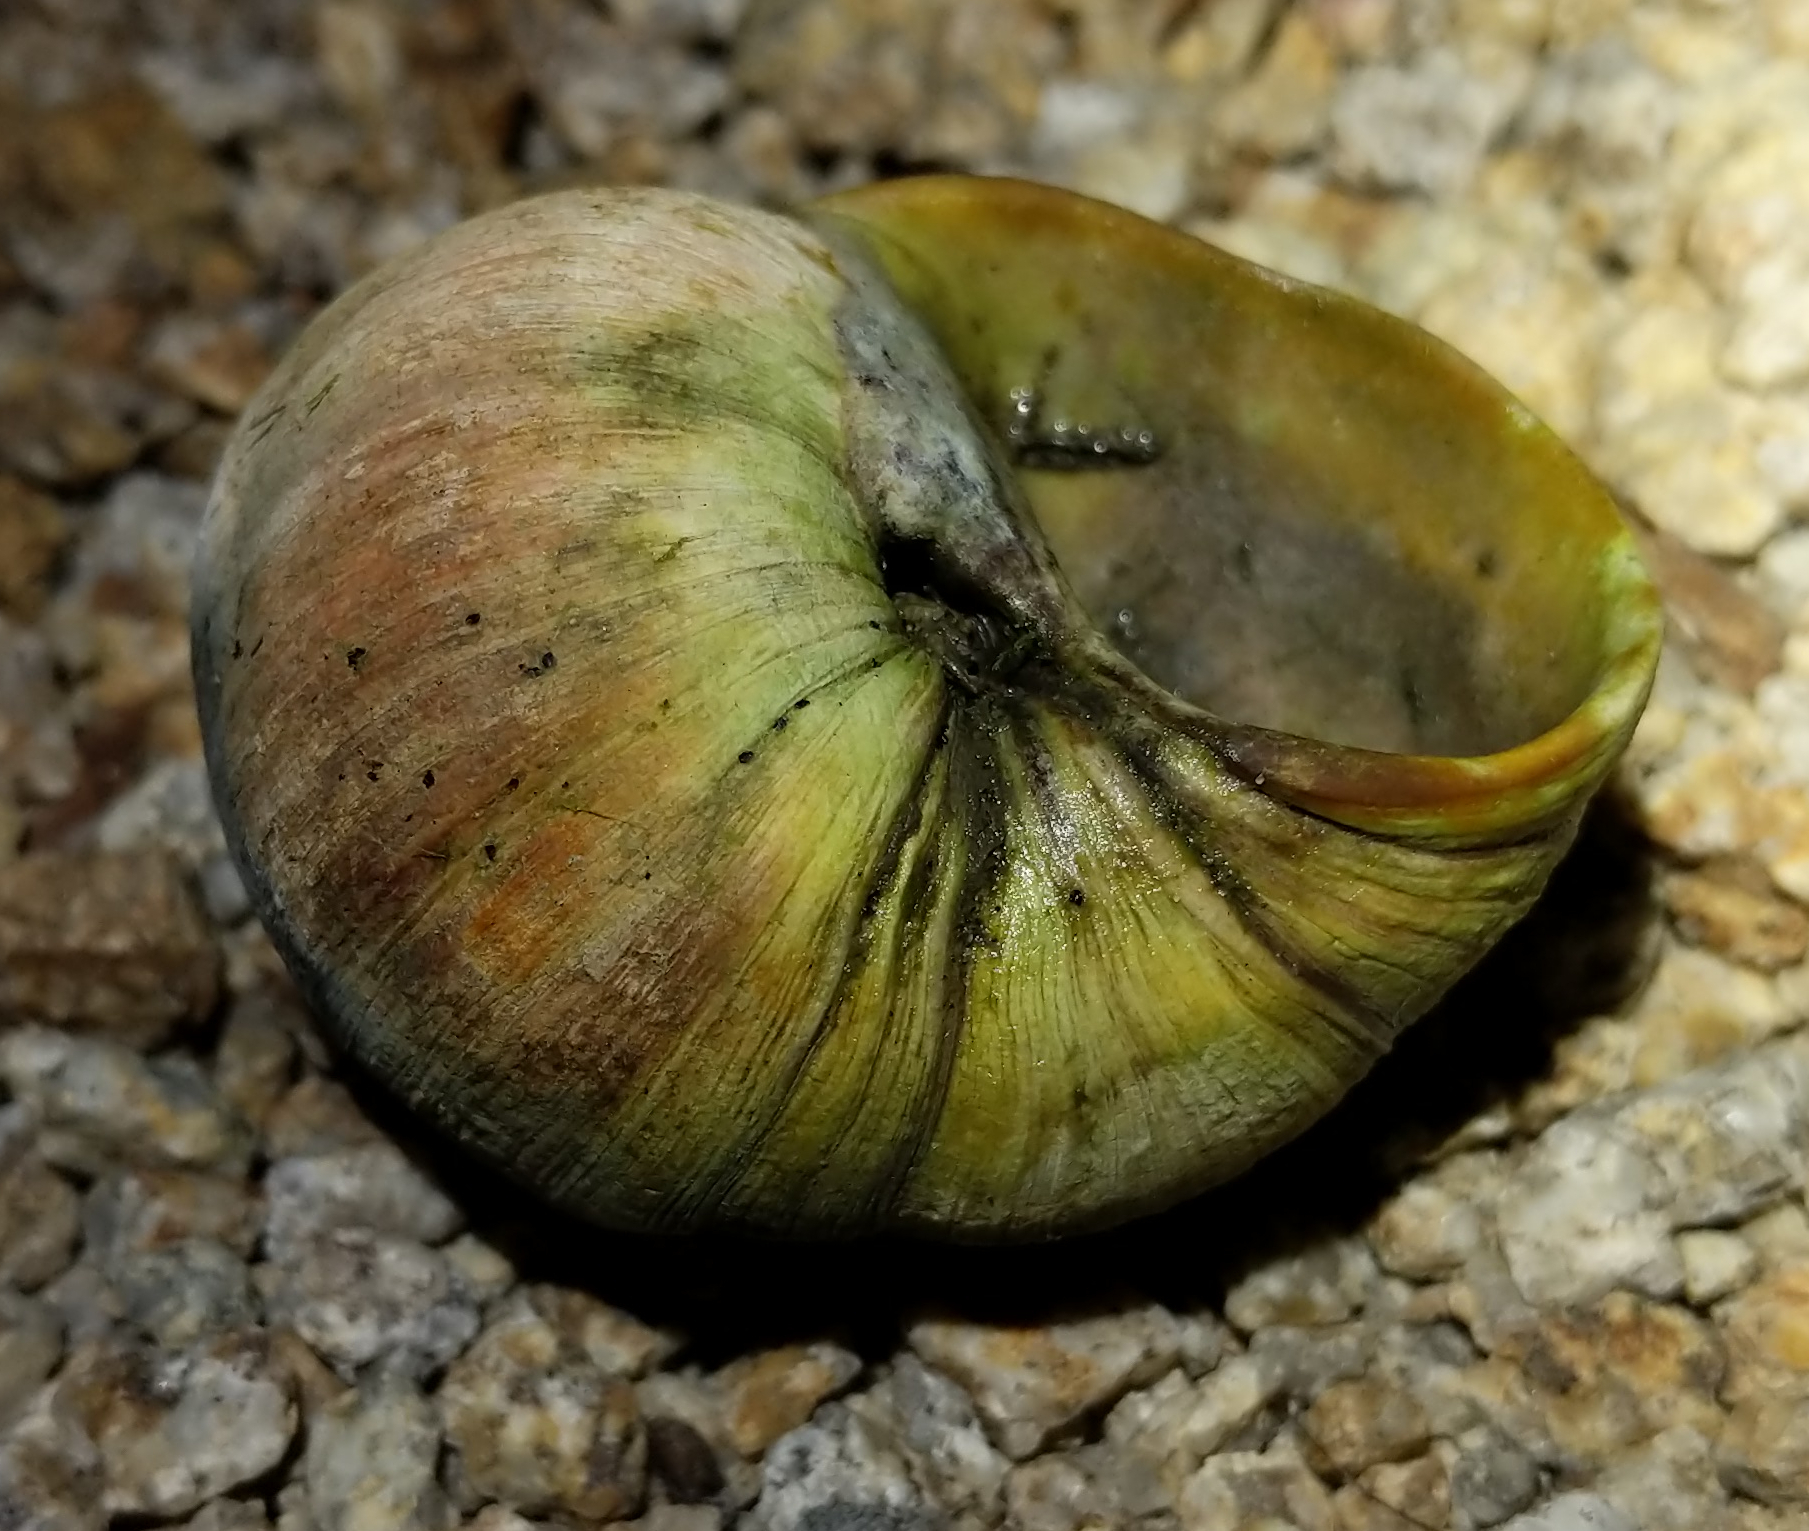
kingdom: Animalia
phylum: Mollusca
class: Gastropoda
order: Littorinimorpha
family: Naticidae
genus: Neverita
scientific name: Neverita lewisii
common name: Lewis' moonsnail
